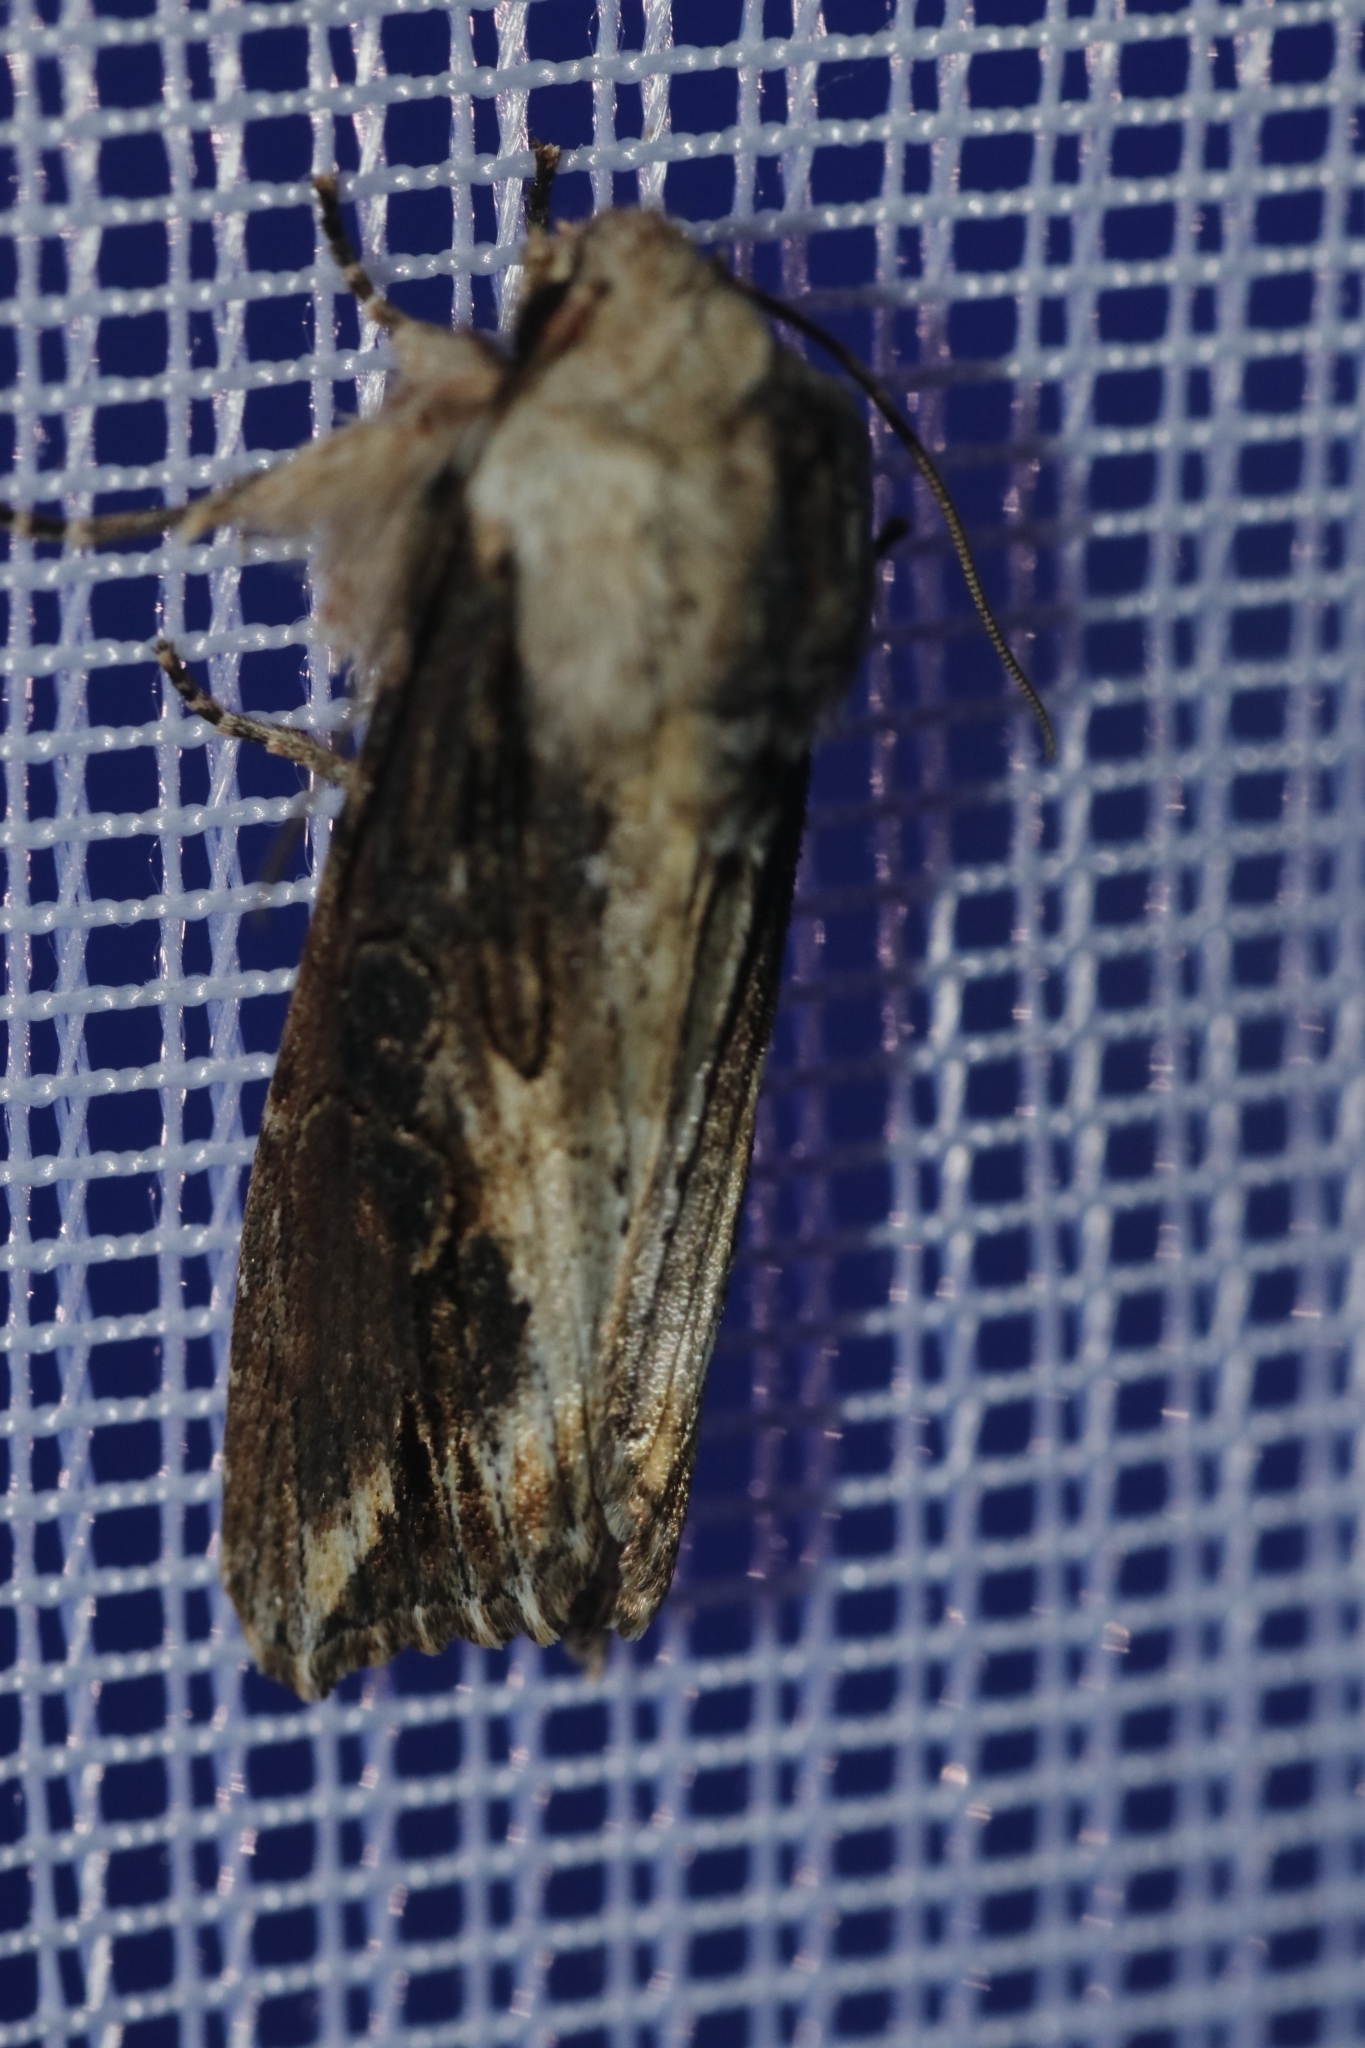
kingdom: Animalia
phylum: Arthropoda
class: Insecta
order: Lepidoptera
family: Noctuidae
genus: Egira
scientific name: Egira conspicillaris
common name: Silver cloud
